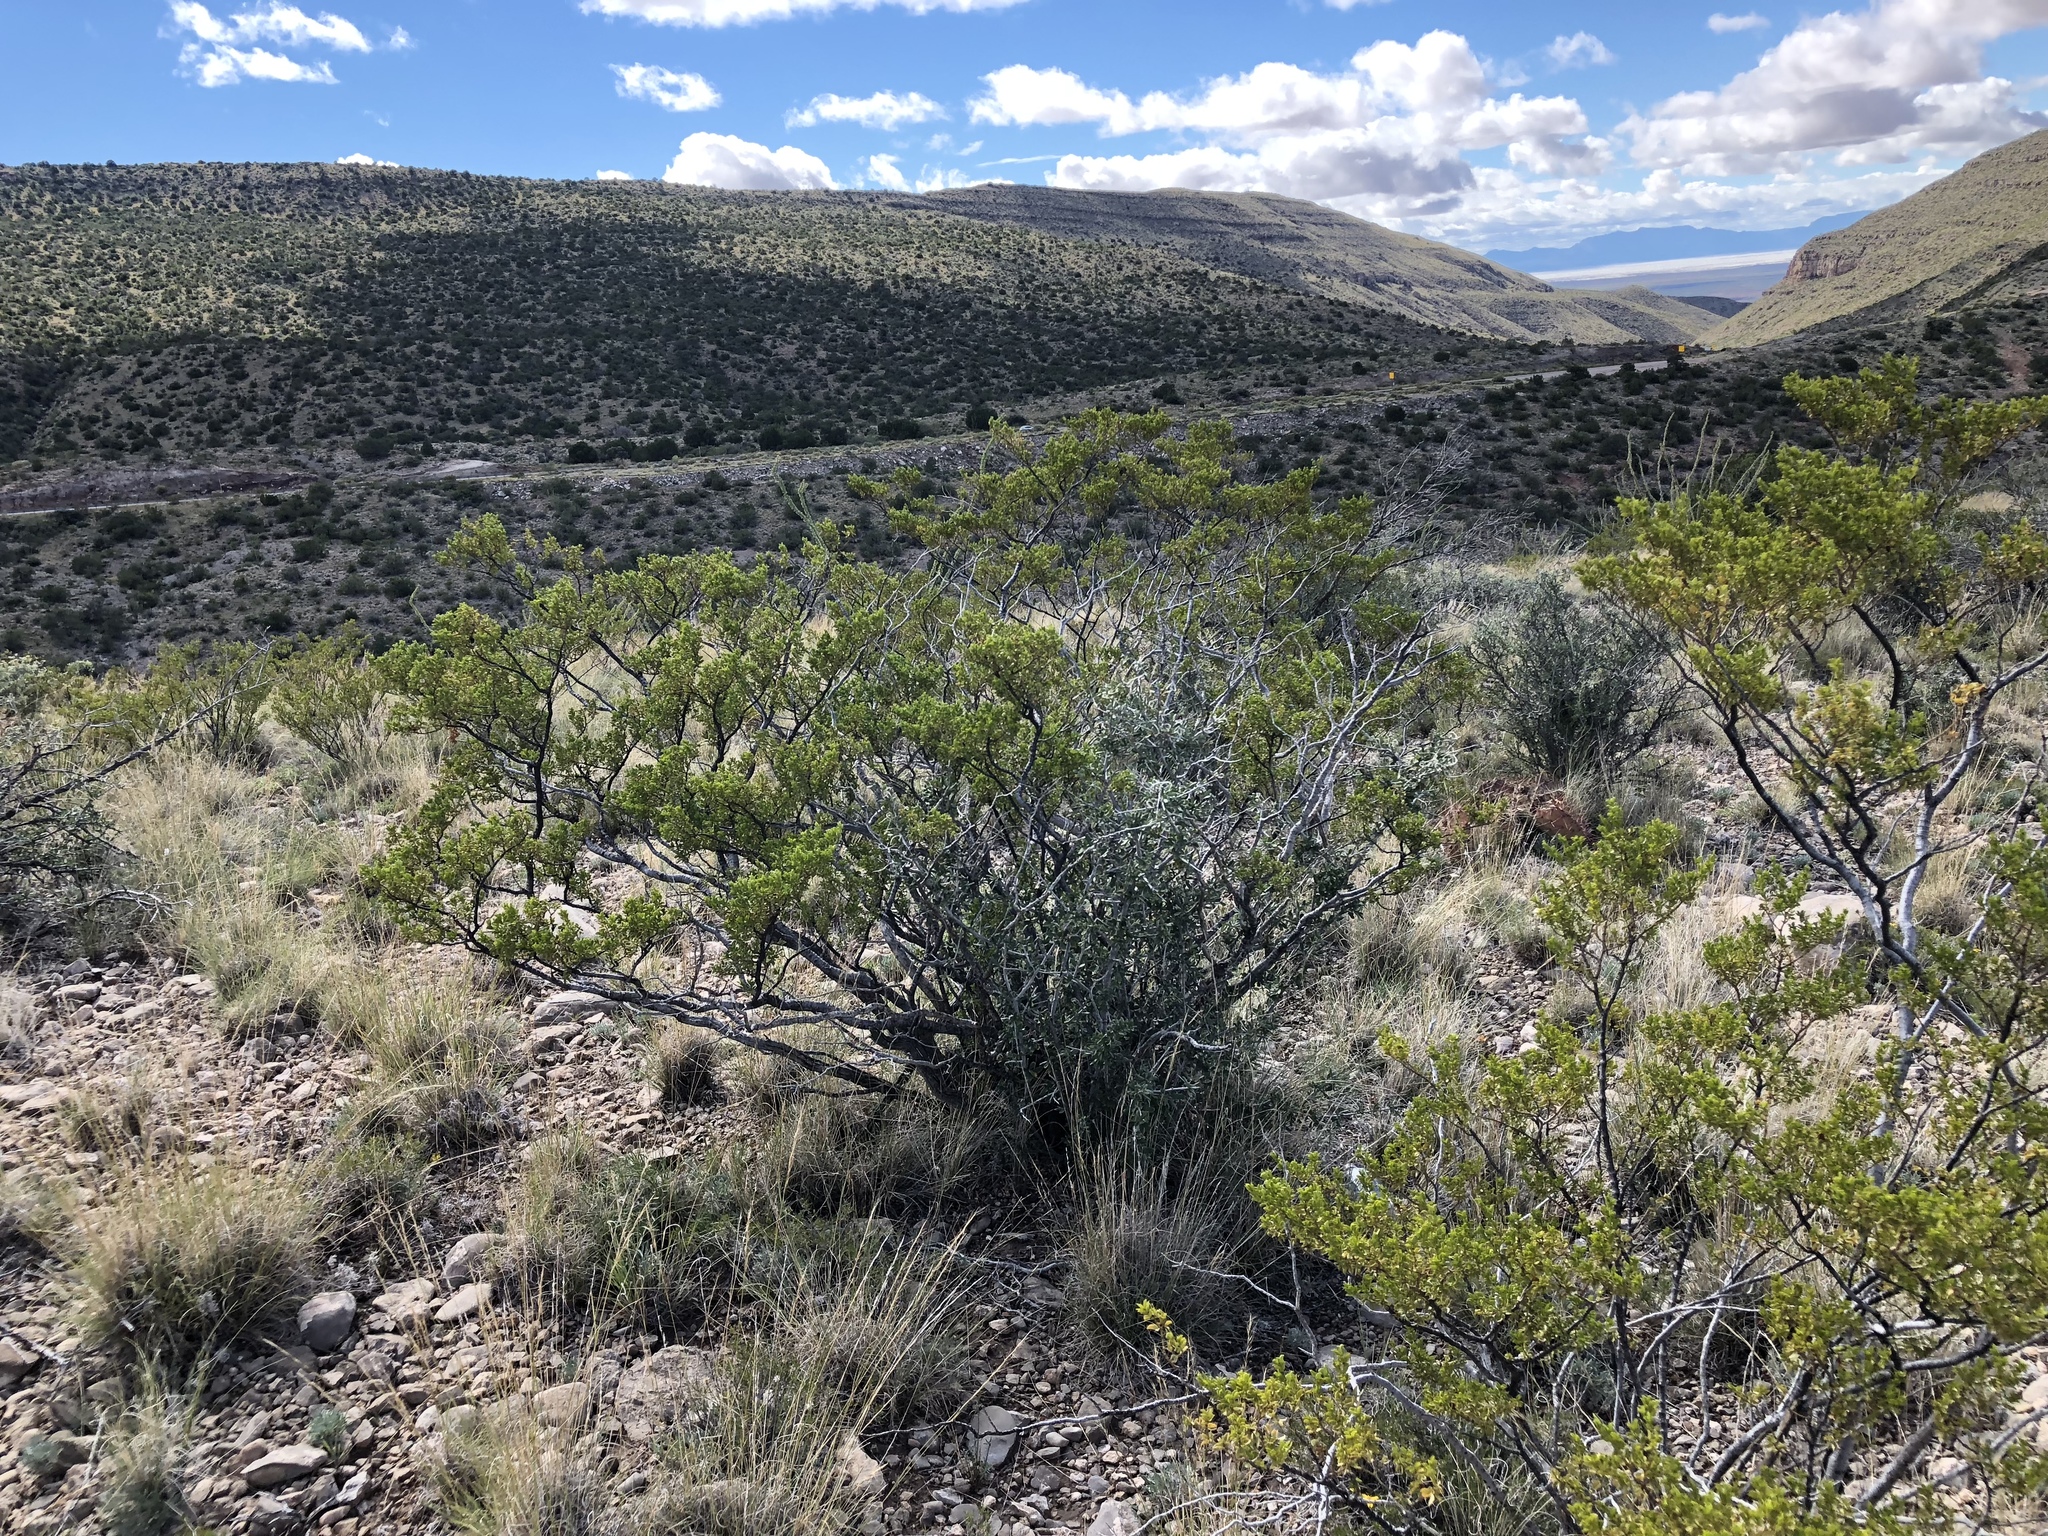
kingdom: Plantae
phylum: Tracheophyta
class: Magnoliopsida
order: Zygophyllales
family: Zygophyllaceae
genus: Larrea
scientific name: Larrea tridentata
